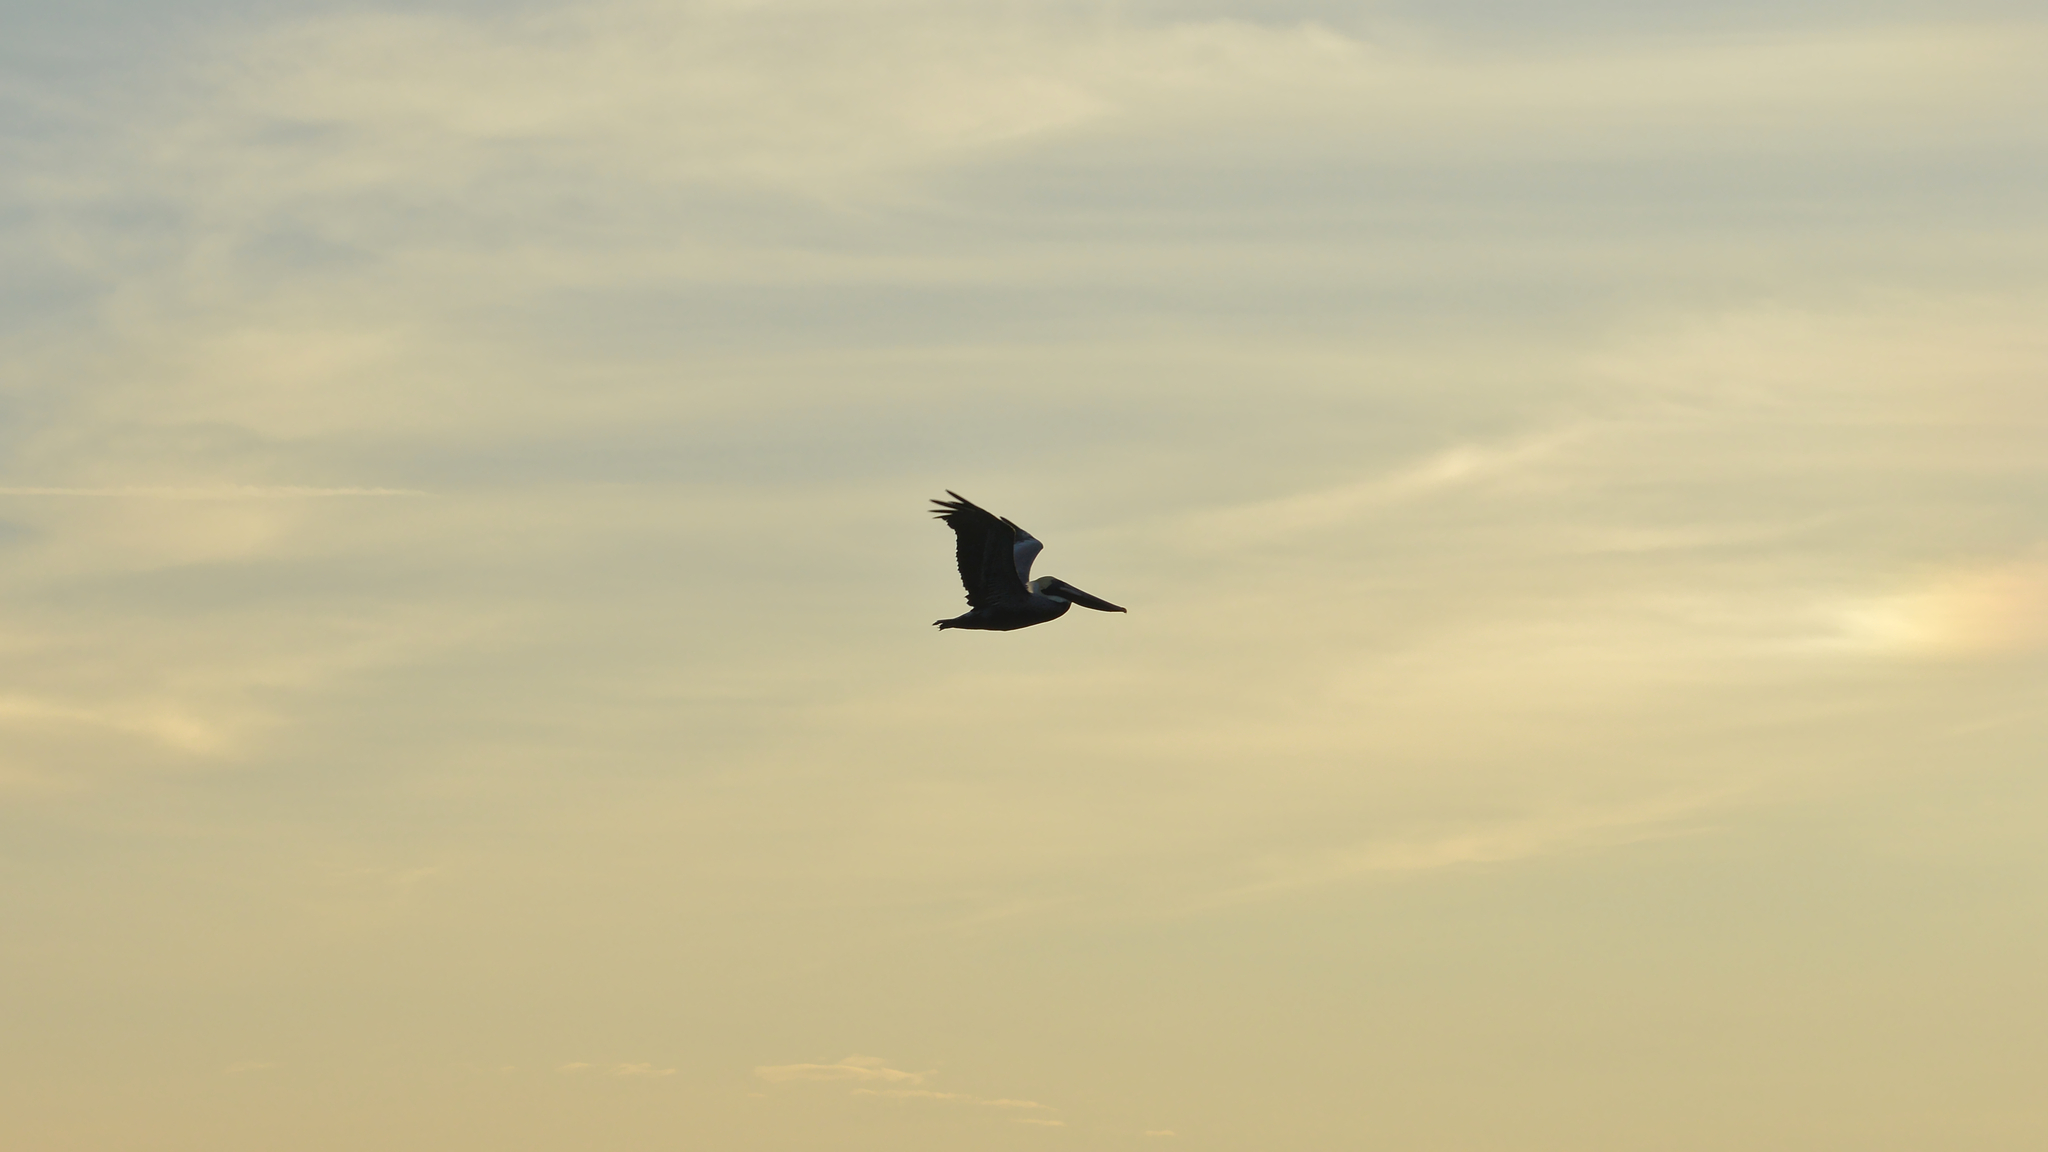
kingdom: Animalia
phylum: Chordata
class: Aves
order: Pelecaniformes
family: Pelecanidae
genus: Pelecanus
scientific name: Pelecanus occidentalis
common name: Brown pelican
